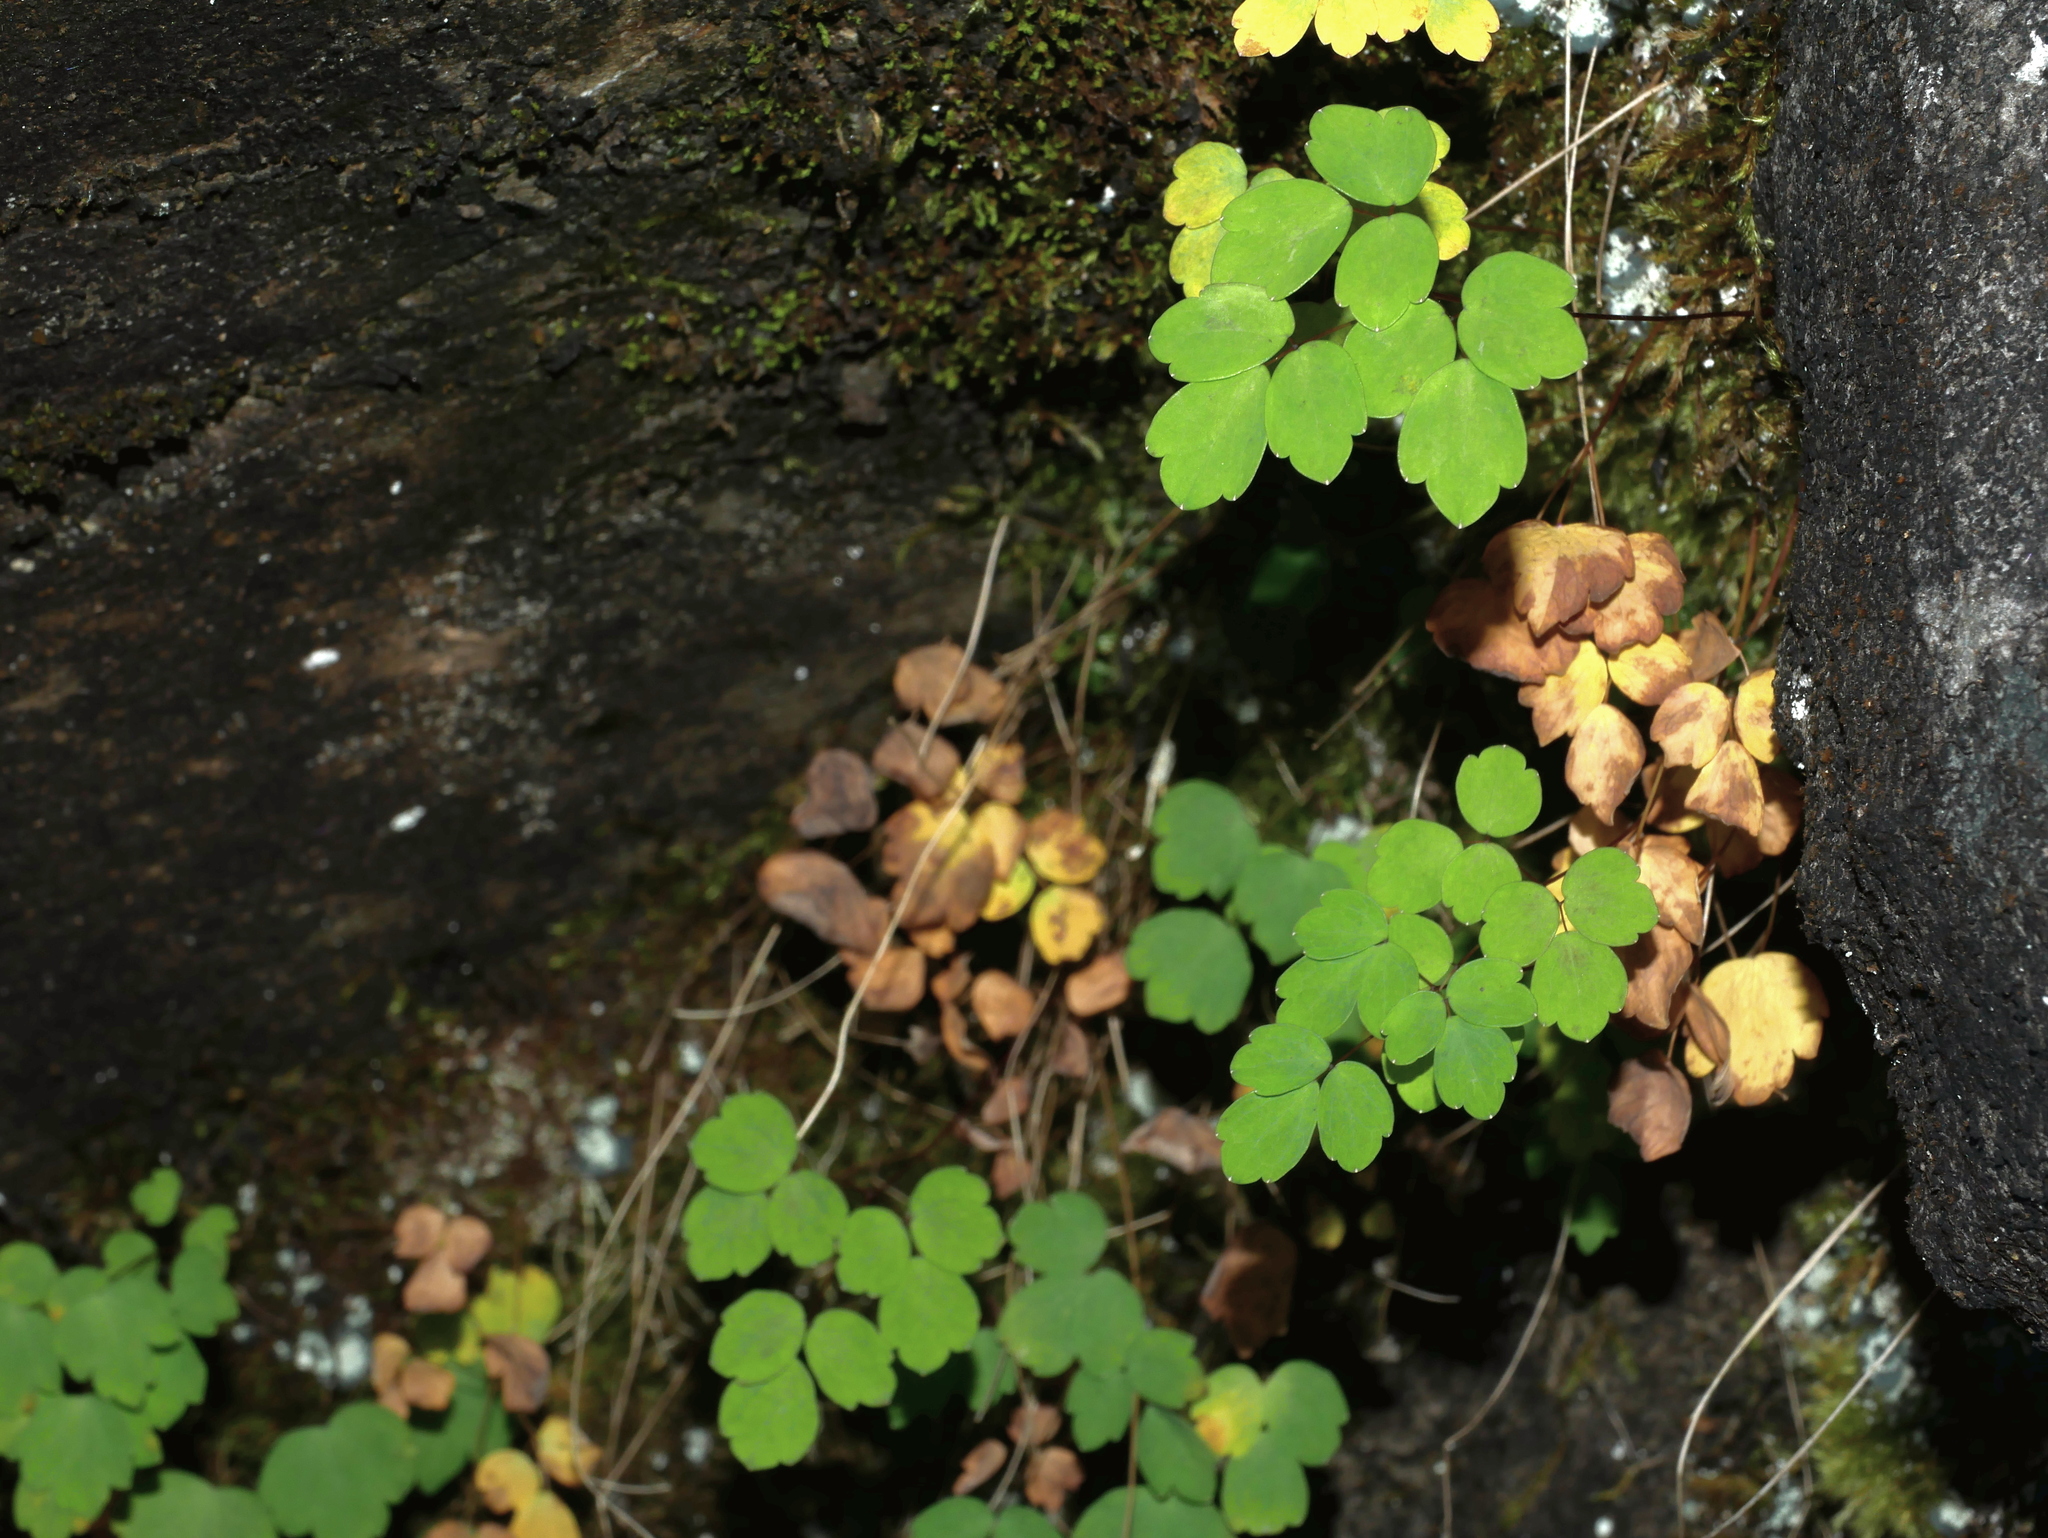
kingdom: Plantae
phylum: Tracheophyta
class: Magnoliopsida
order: Ranunculales
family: Ranunculaceae
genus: Thalictrum
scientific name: Thalictrum urbaini
